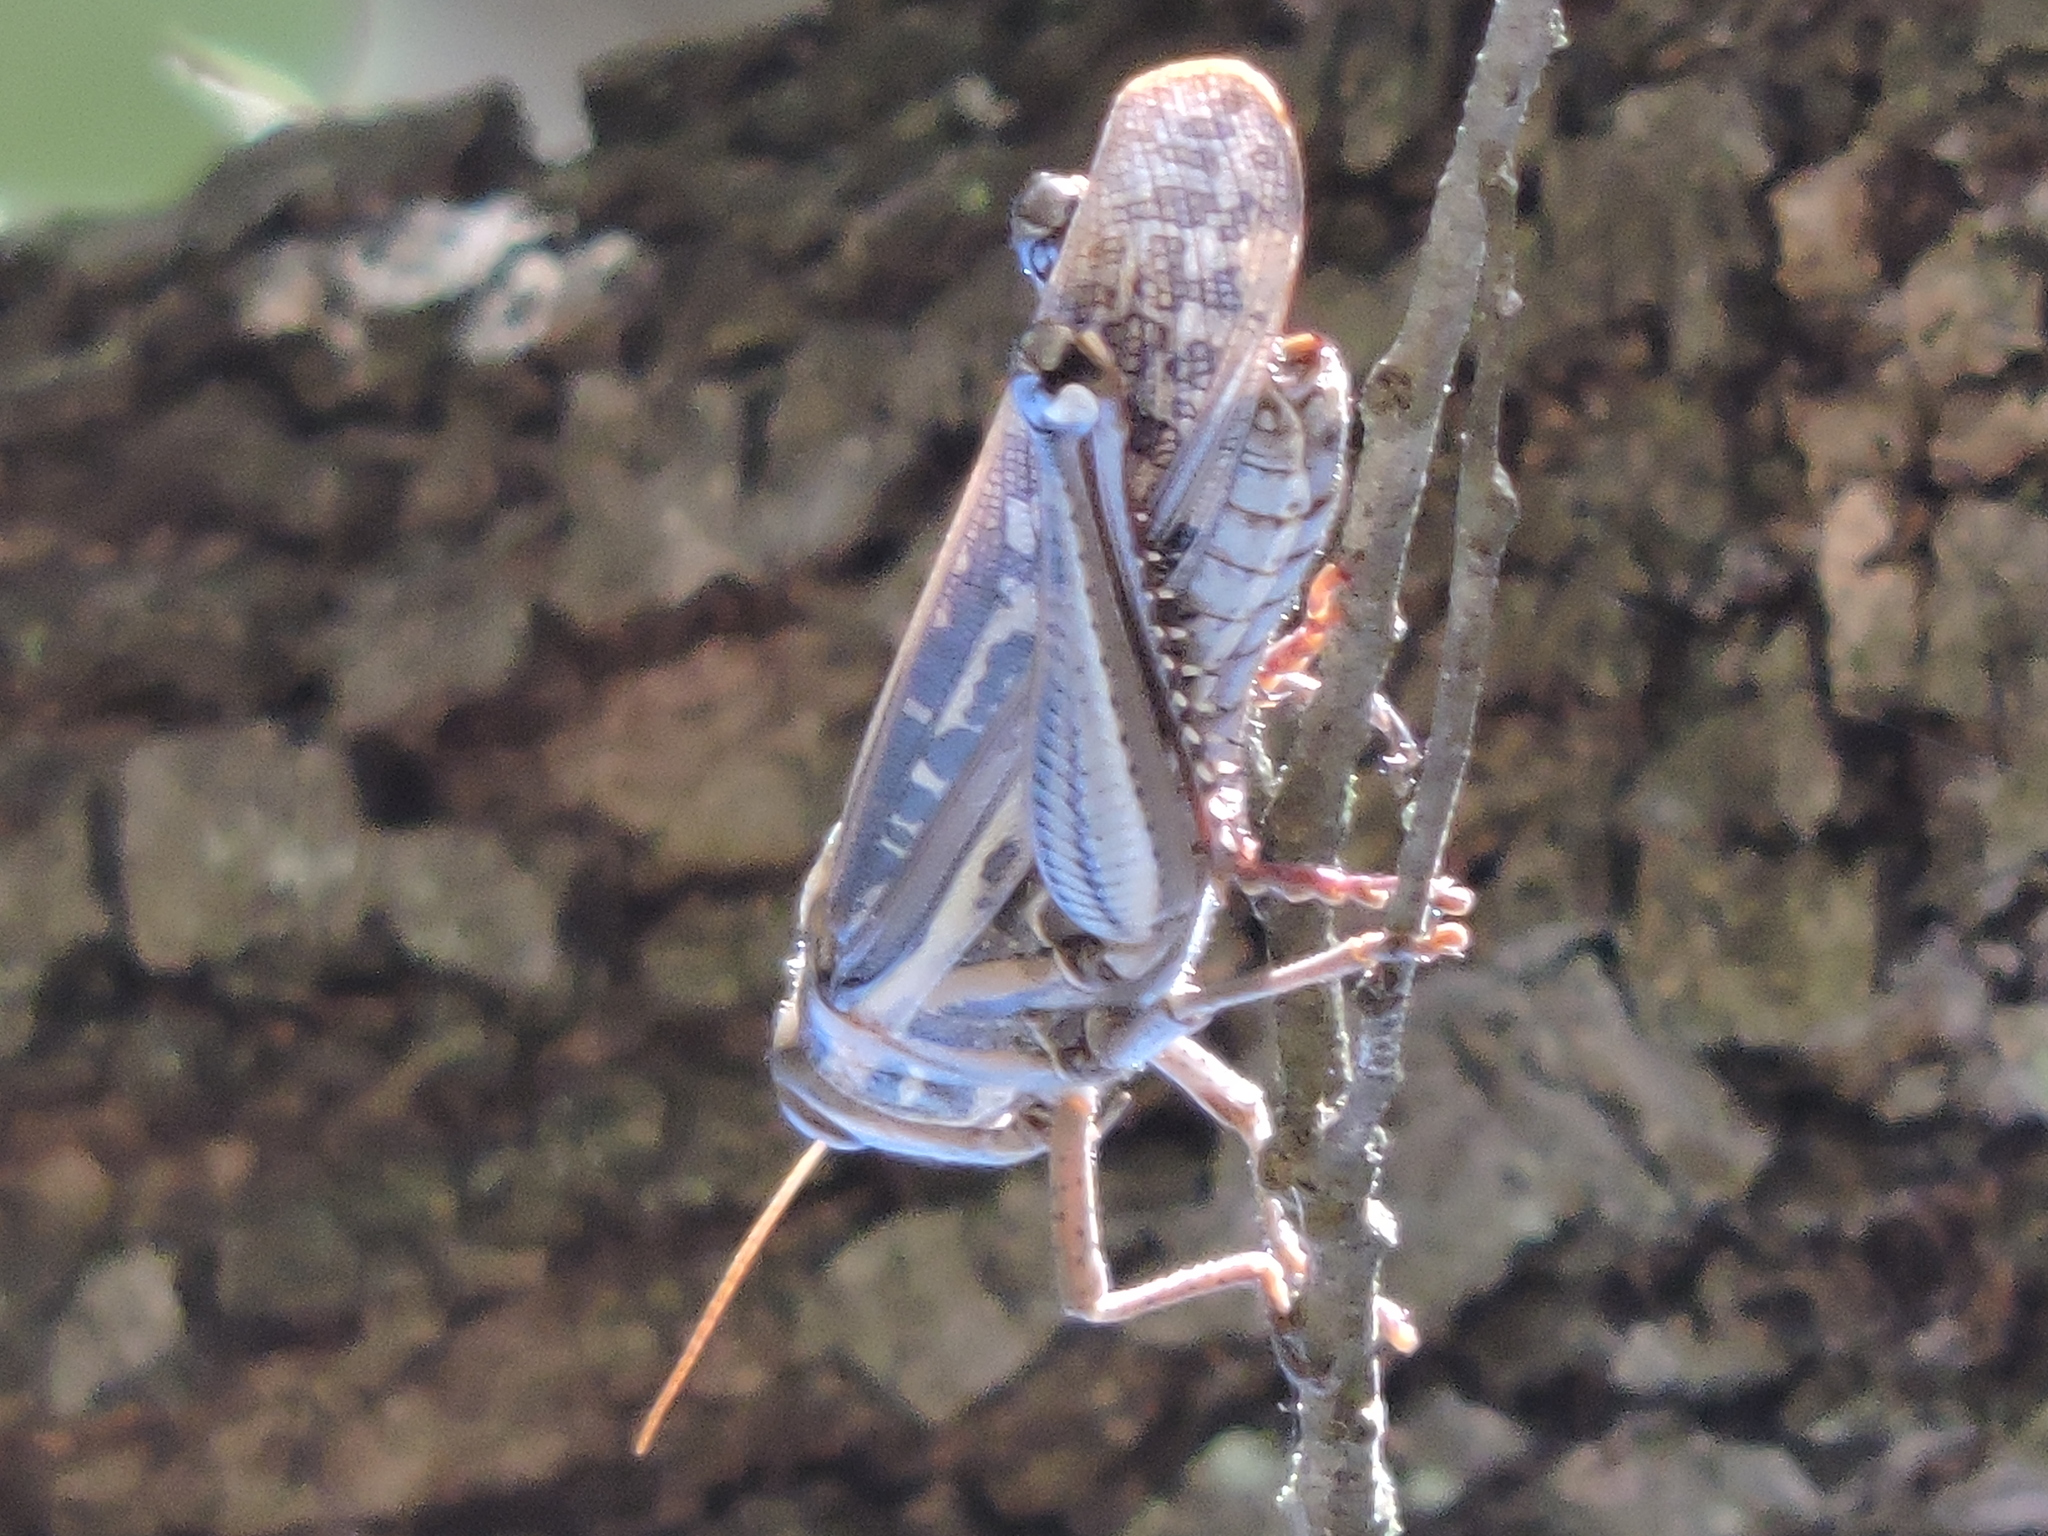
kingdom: Animalia
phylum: Arthropoda
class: Insecta
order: Orthoptera
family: Acrididae
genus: Schistocerca
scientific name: Schistocerca americana
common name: American bird locust
